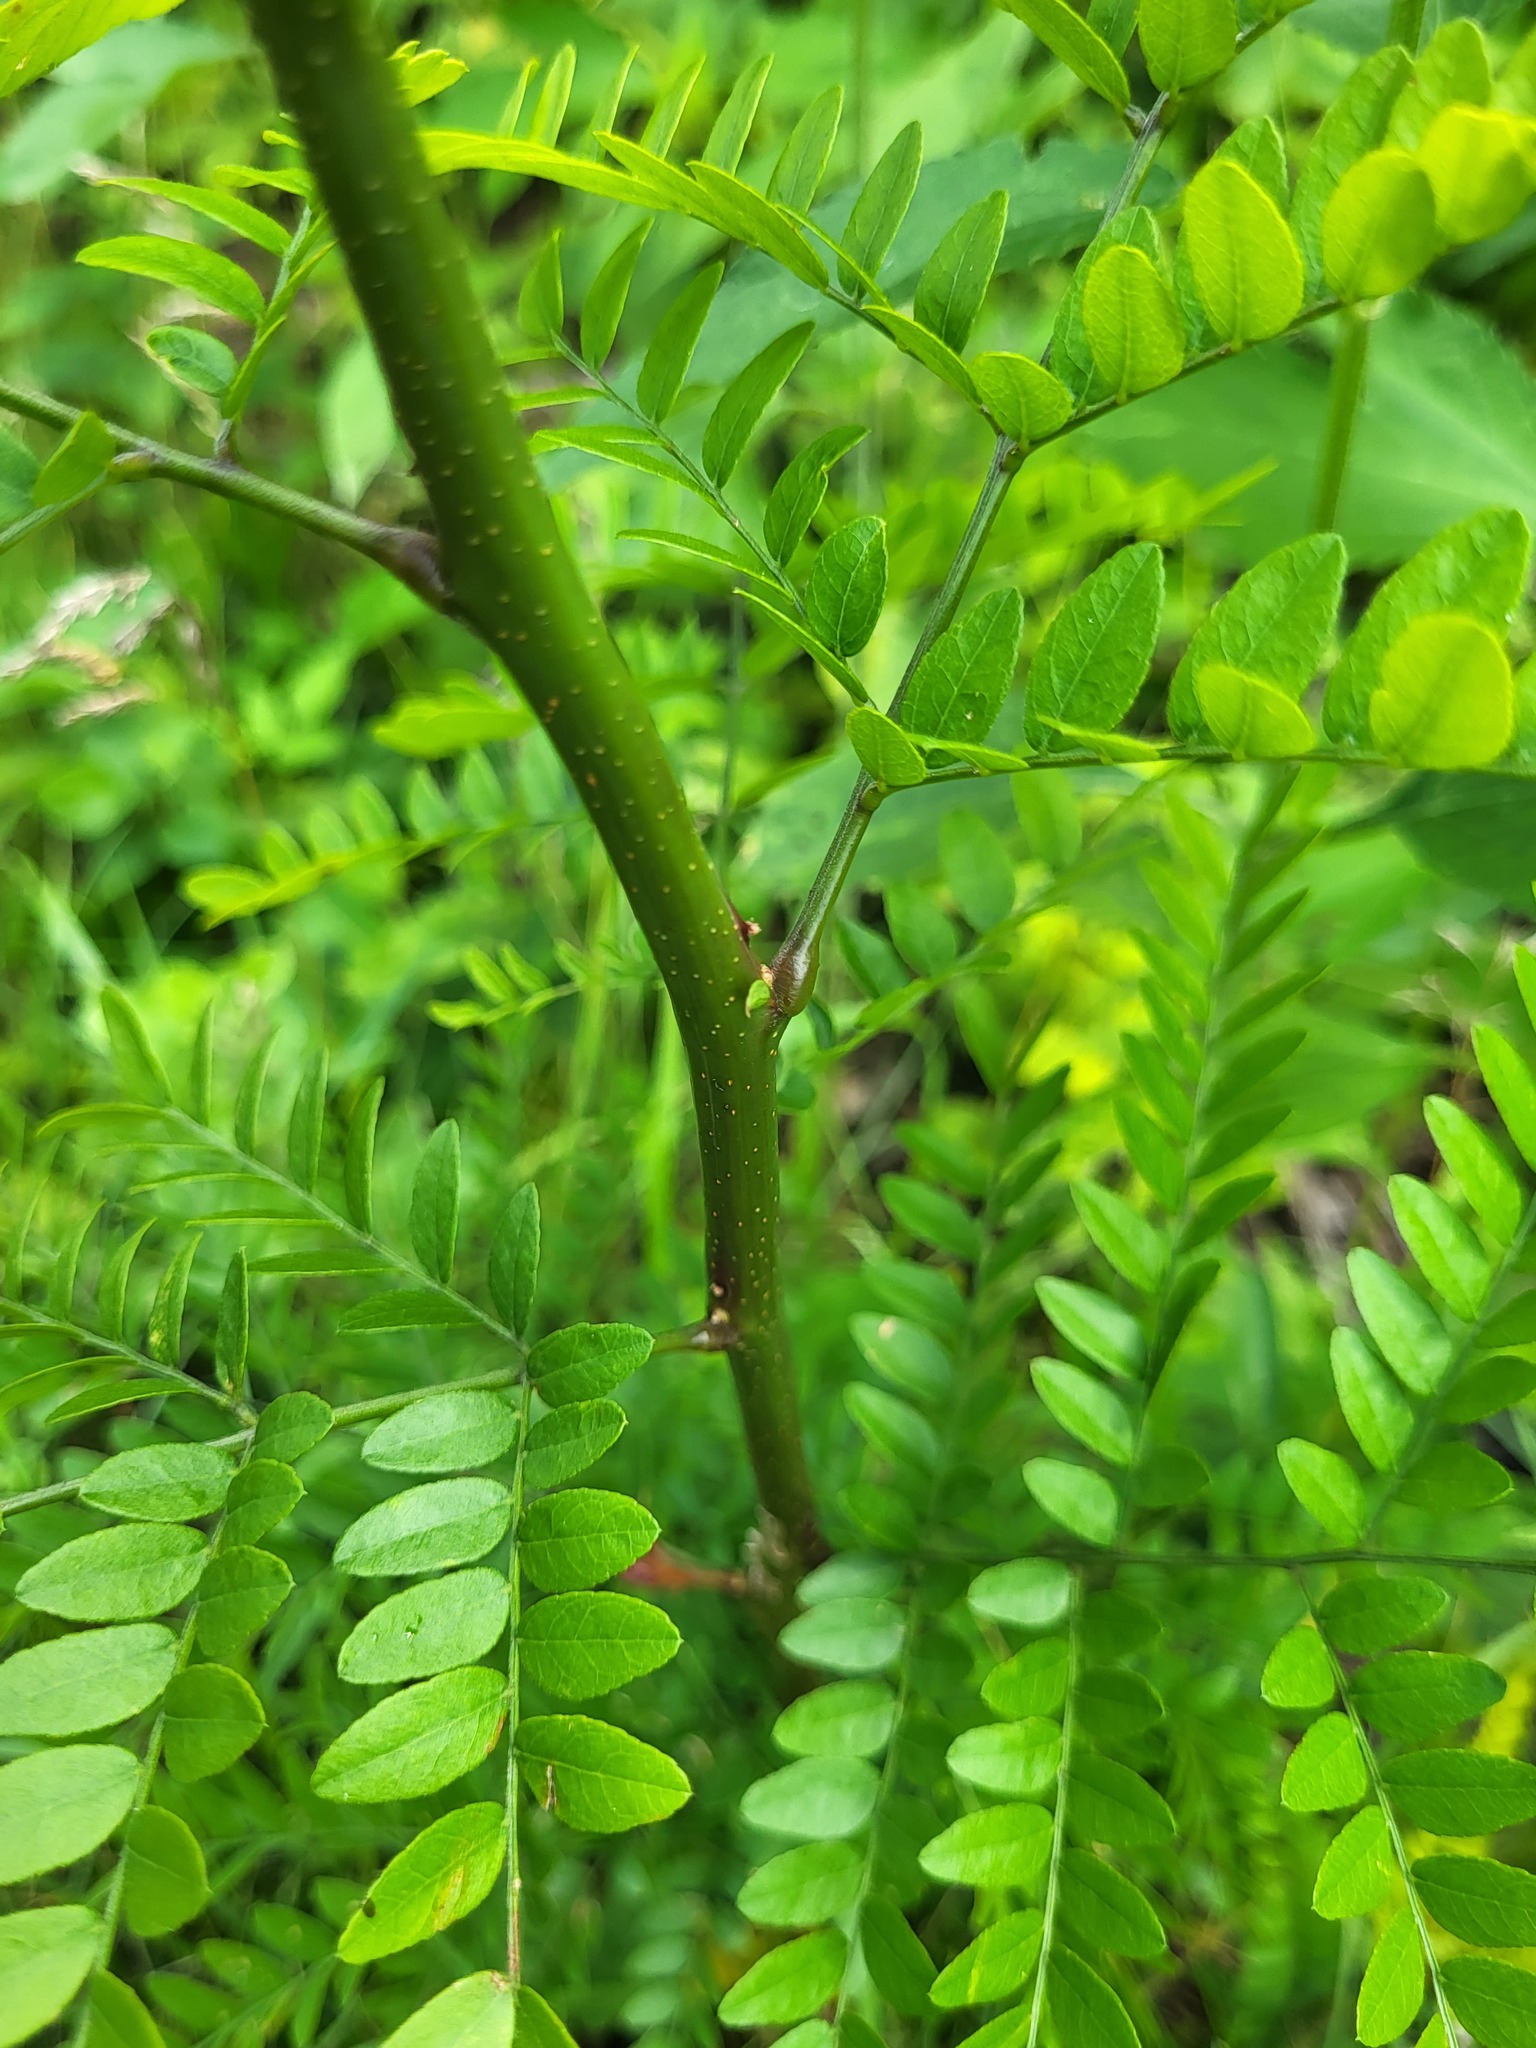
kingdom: Plantae
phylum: Tracheophyta
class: Magnoliopsida
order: Fabales
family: Fabaceae
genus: Gleditsia
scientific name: Gleditsia triacanthos
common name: Common honeylocust
